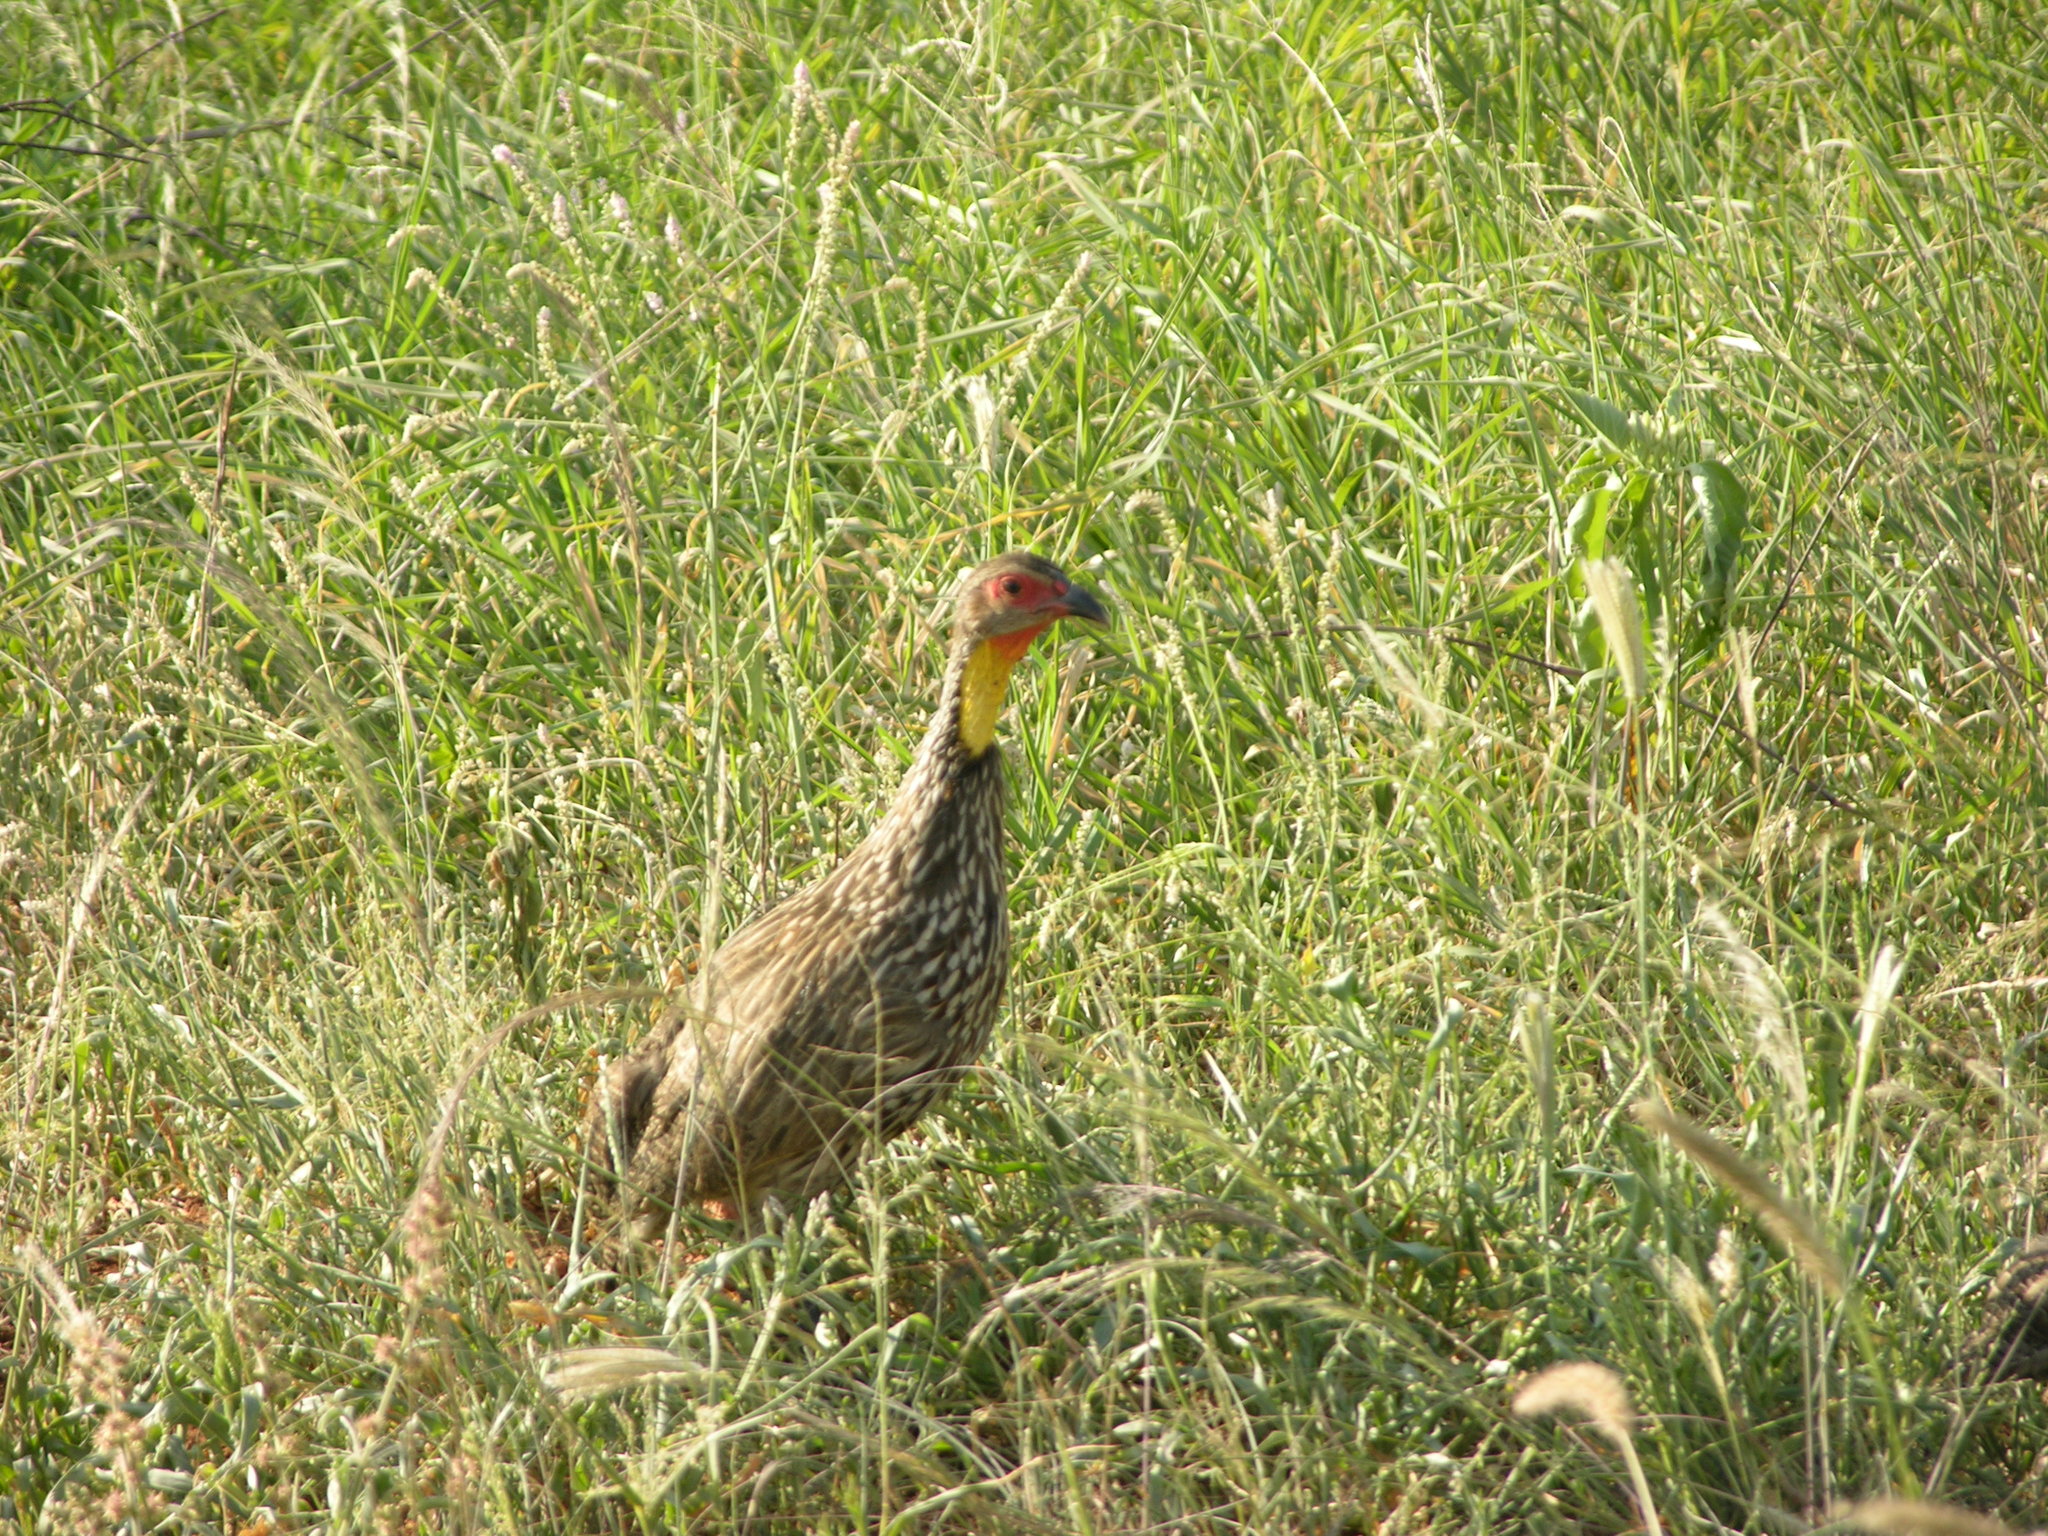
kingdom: Animalia
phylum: Chordata
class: Aves
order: Galliformes
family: Phasianidae
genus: Pternistis
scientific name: Pternistis leucoscepus
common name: Yellow-necked spurfowl
